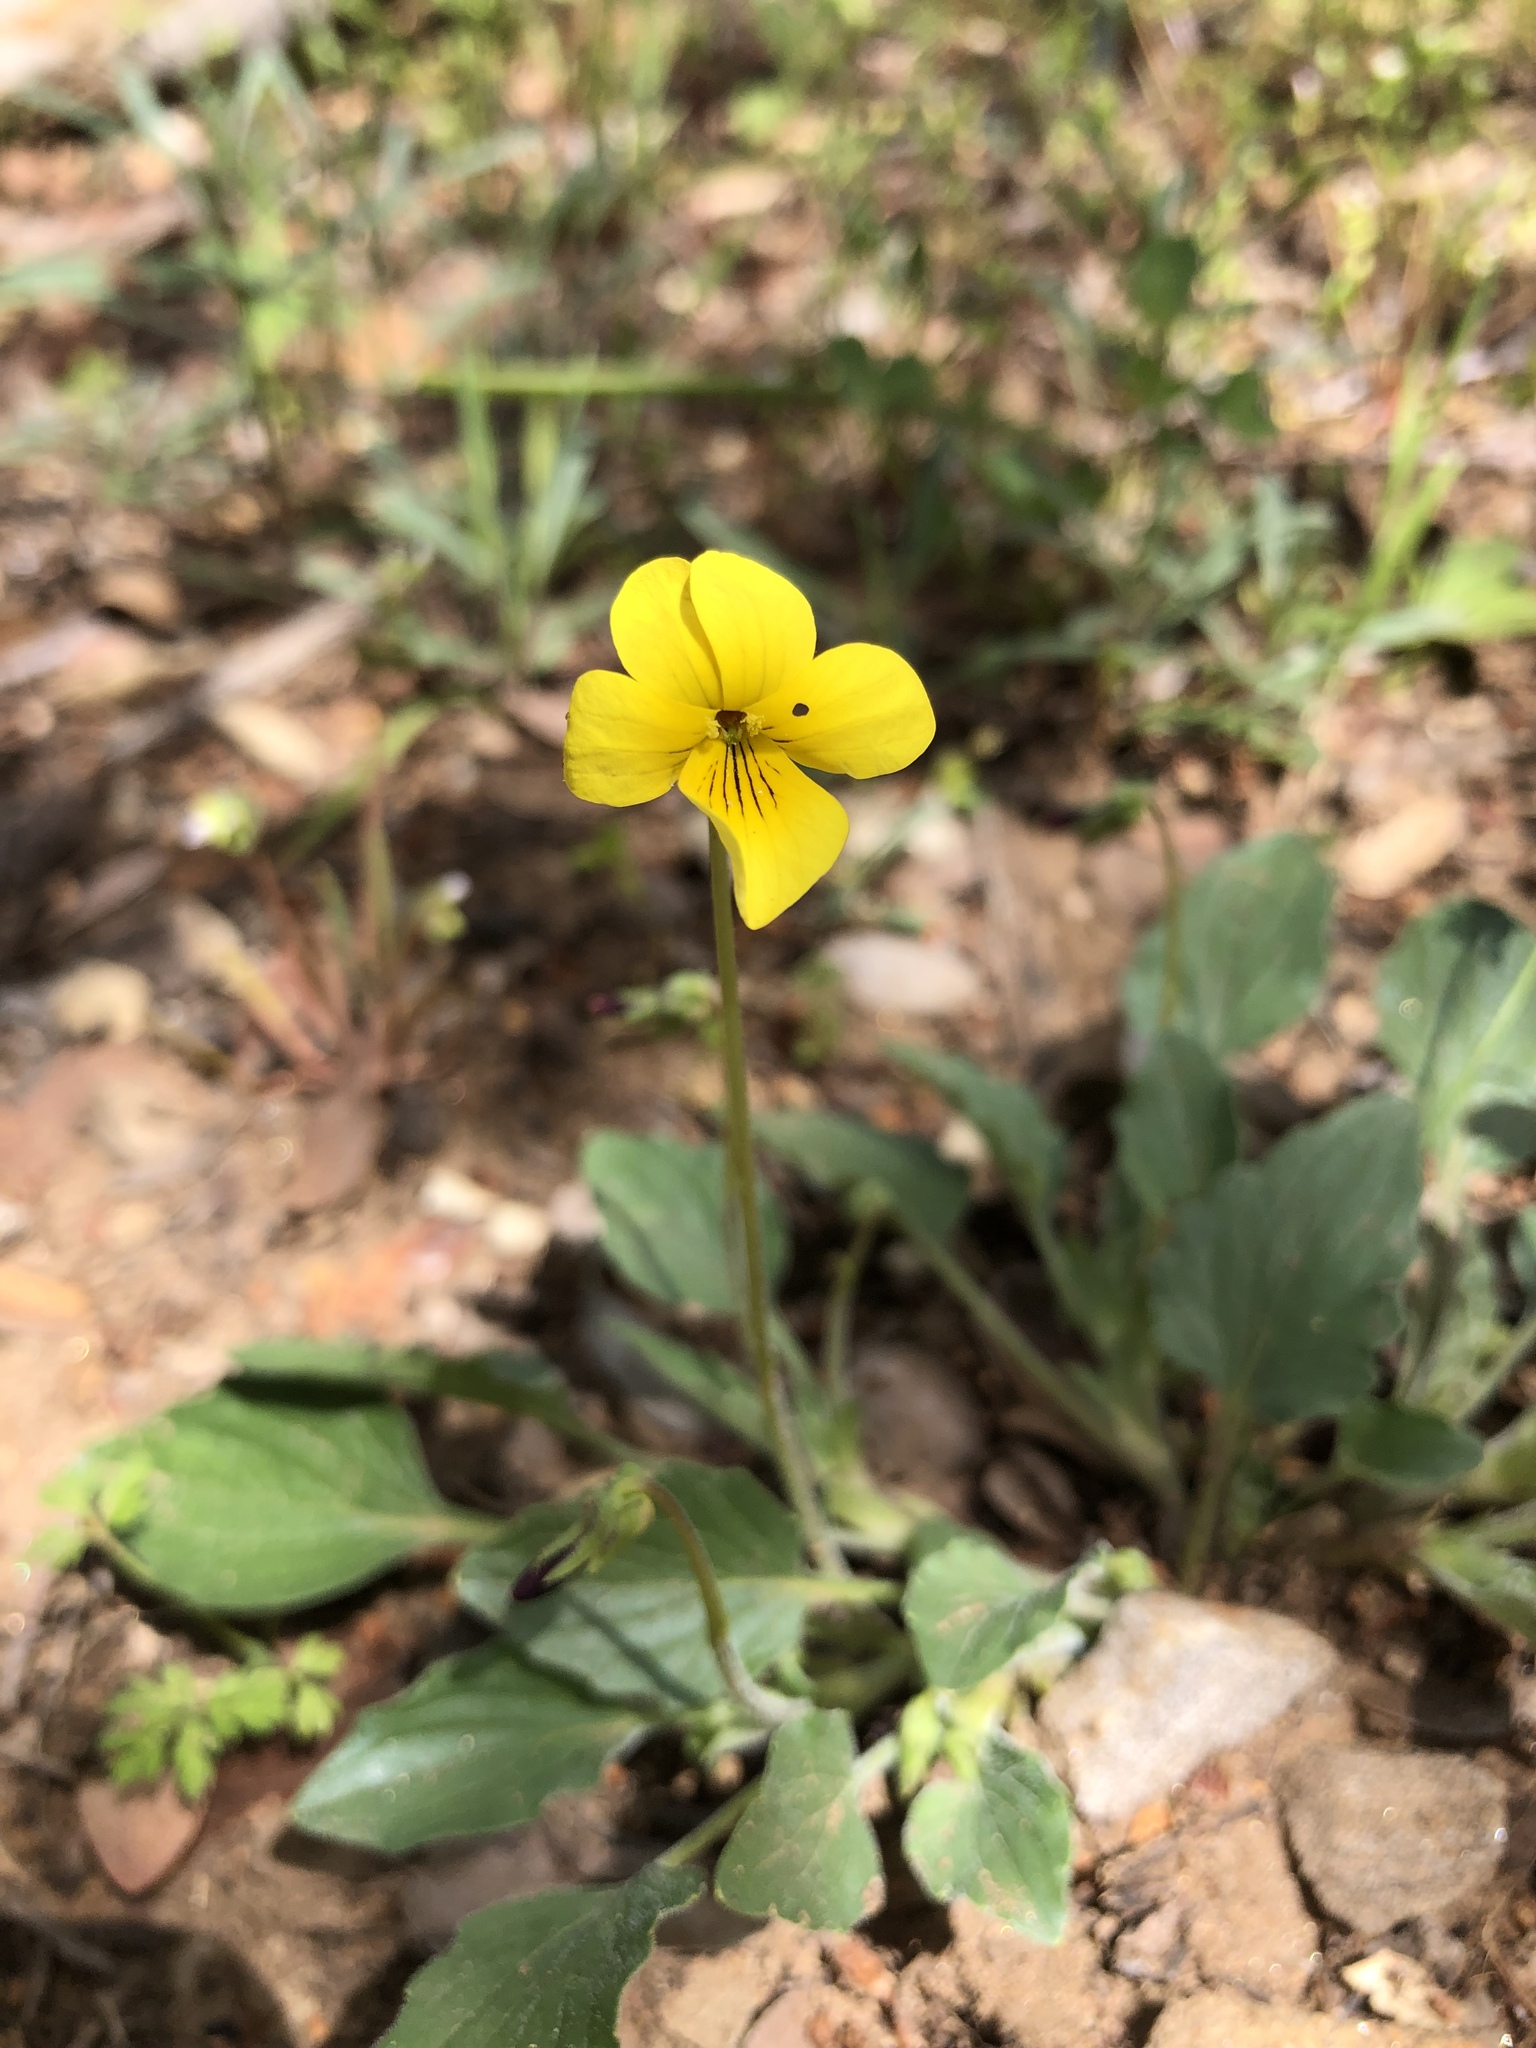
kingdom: Plantae
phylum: Tracheophyta
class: Magnoliopsida
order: Malpighiales
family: Violaceae
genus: Viola
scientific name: Viola purpurea
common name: Pine violet
